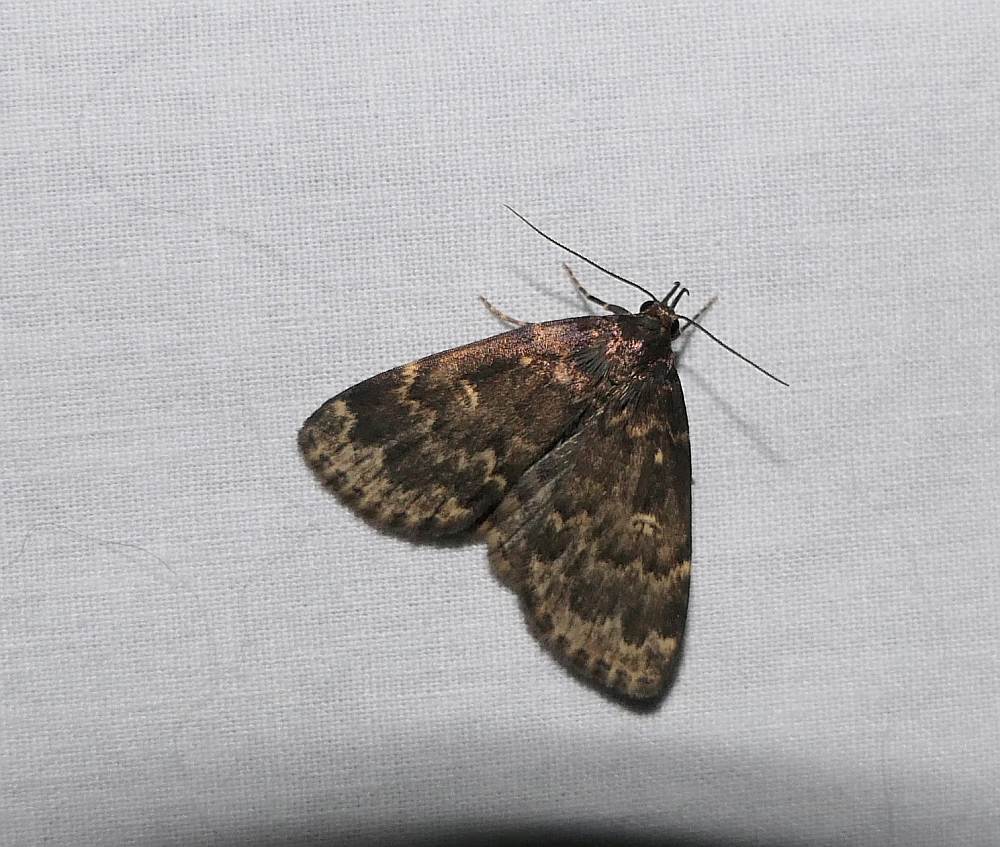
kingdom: Animalia
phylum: Arthropoda
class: Insecta
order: Lepidoptera
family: Erebidae
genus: Idia
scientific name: Idia lubricalis
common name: Twin-striped tabby
